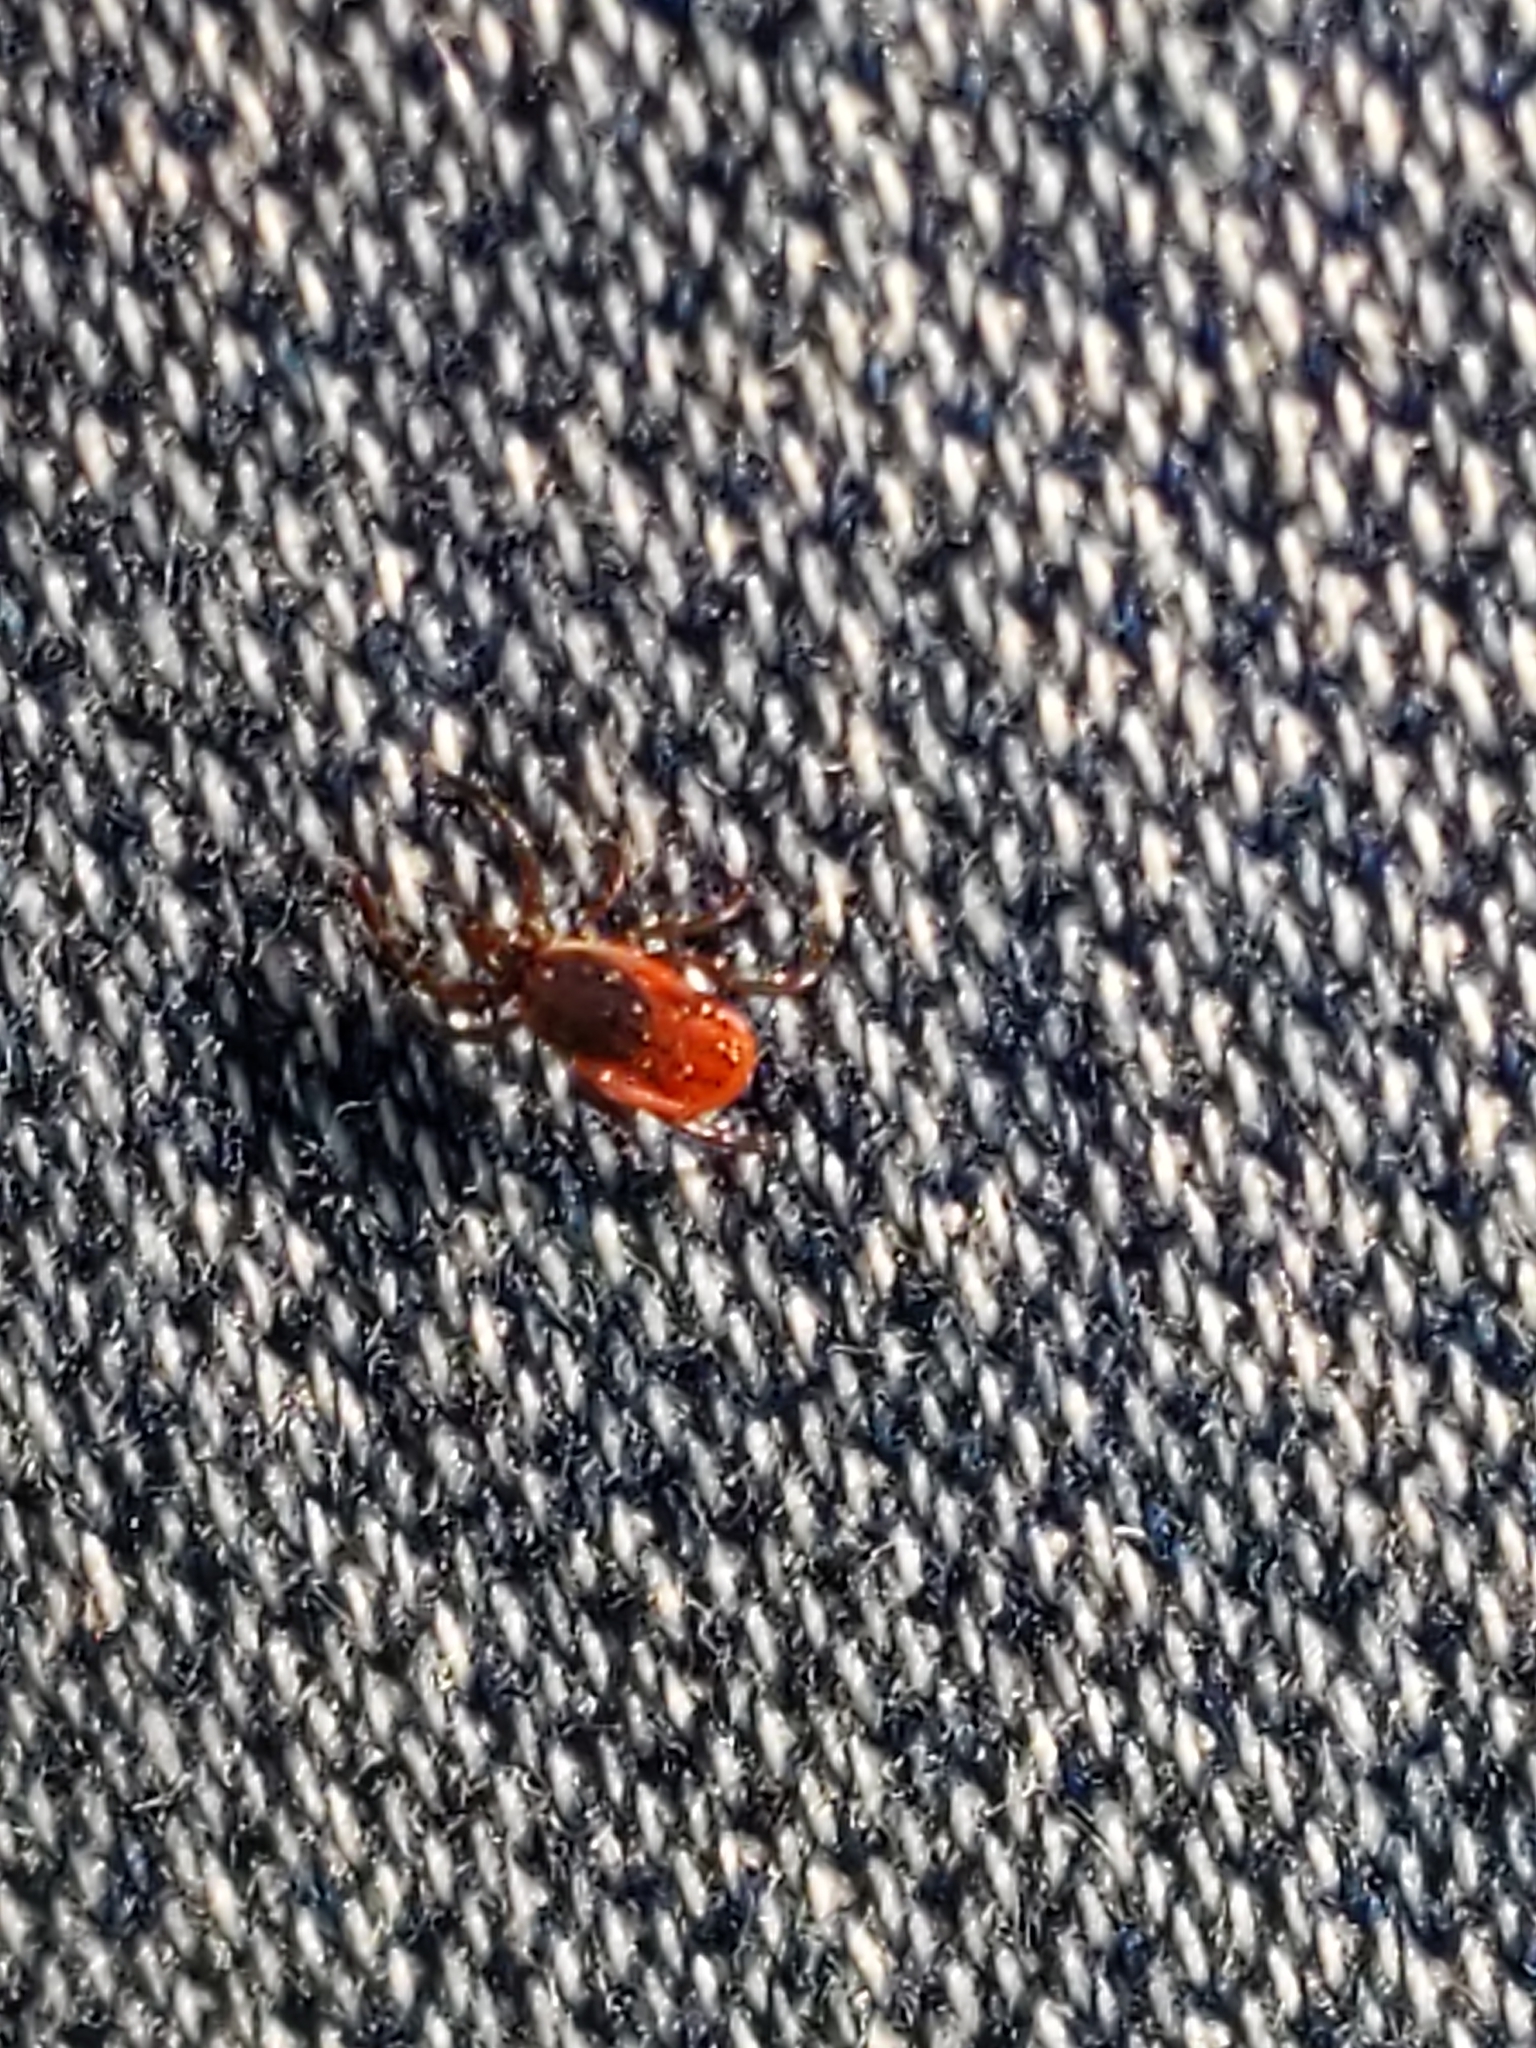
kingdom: Animalia
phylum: Arthropoda
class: Arachnida
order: Ixodida
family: Ixodidae
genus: Ixodes
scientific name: Ixodes scapularis
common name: Black legged tick
